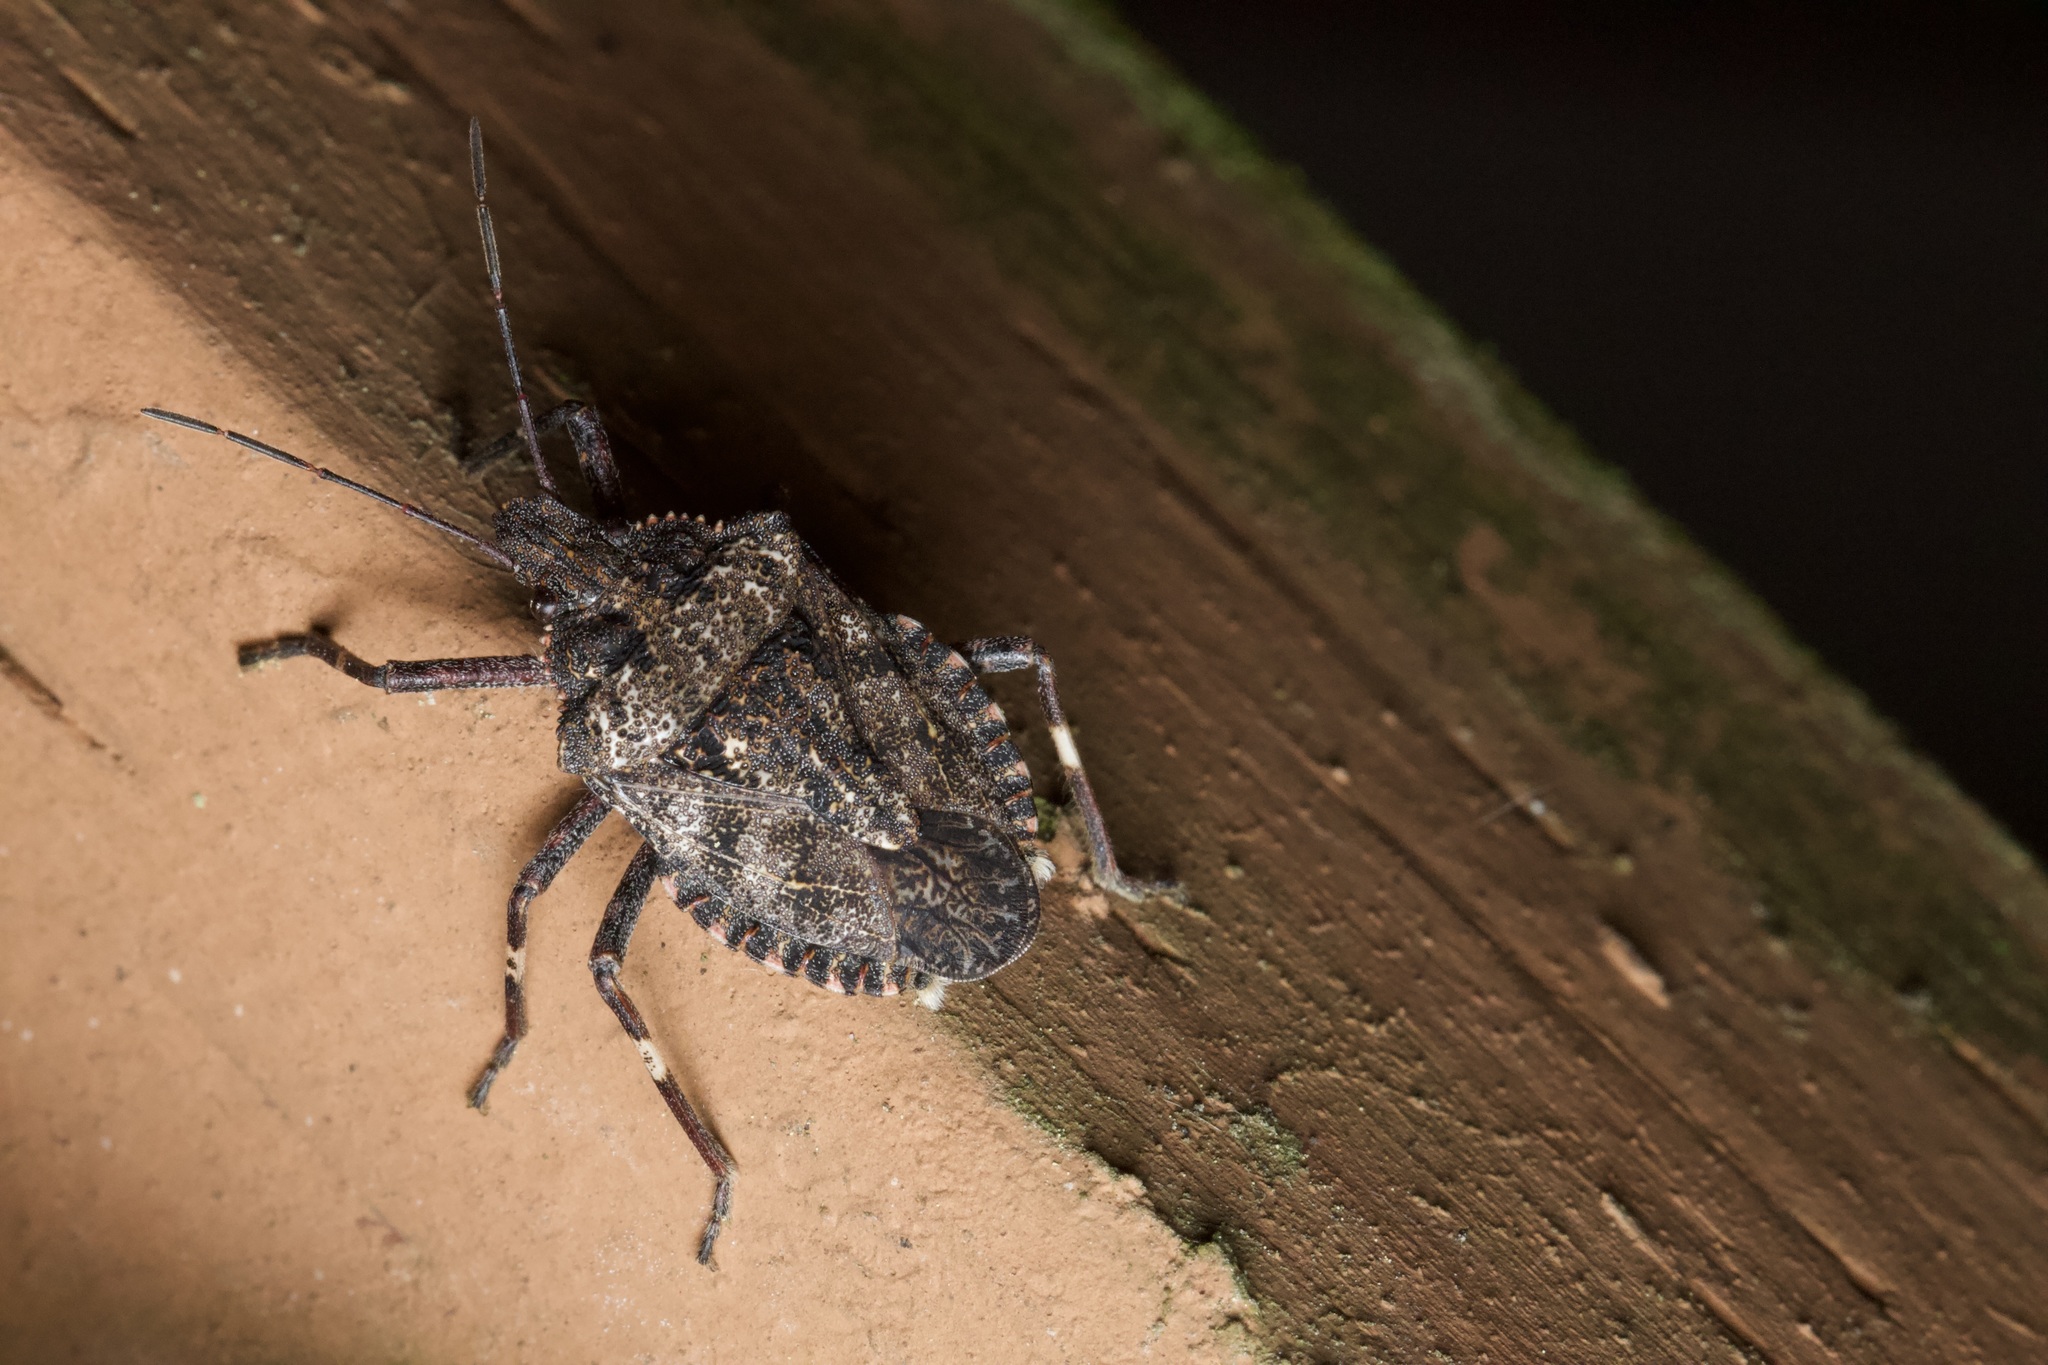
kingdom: Animalia
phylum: Arthropoda
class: Insecta
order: Hemiptera
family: Pentatomidae
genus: Brochymena
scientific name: Brochymena affinis
